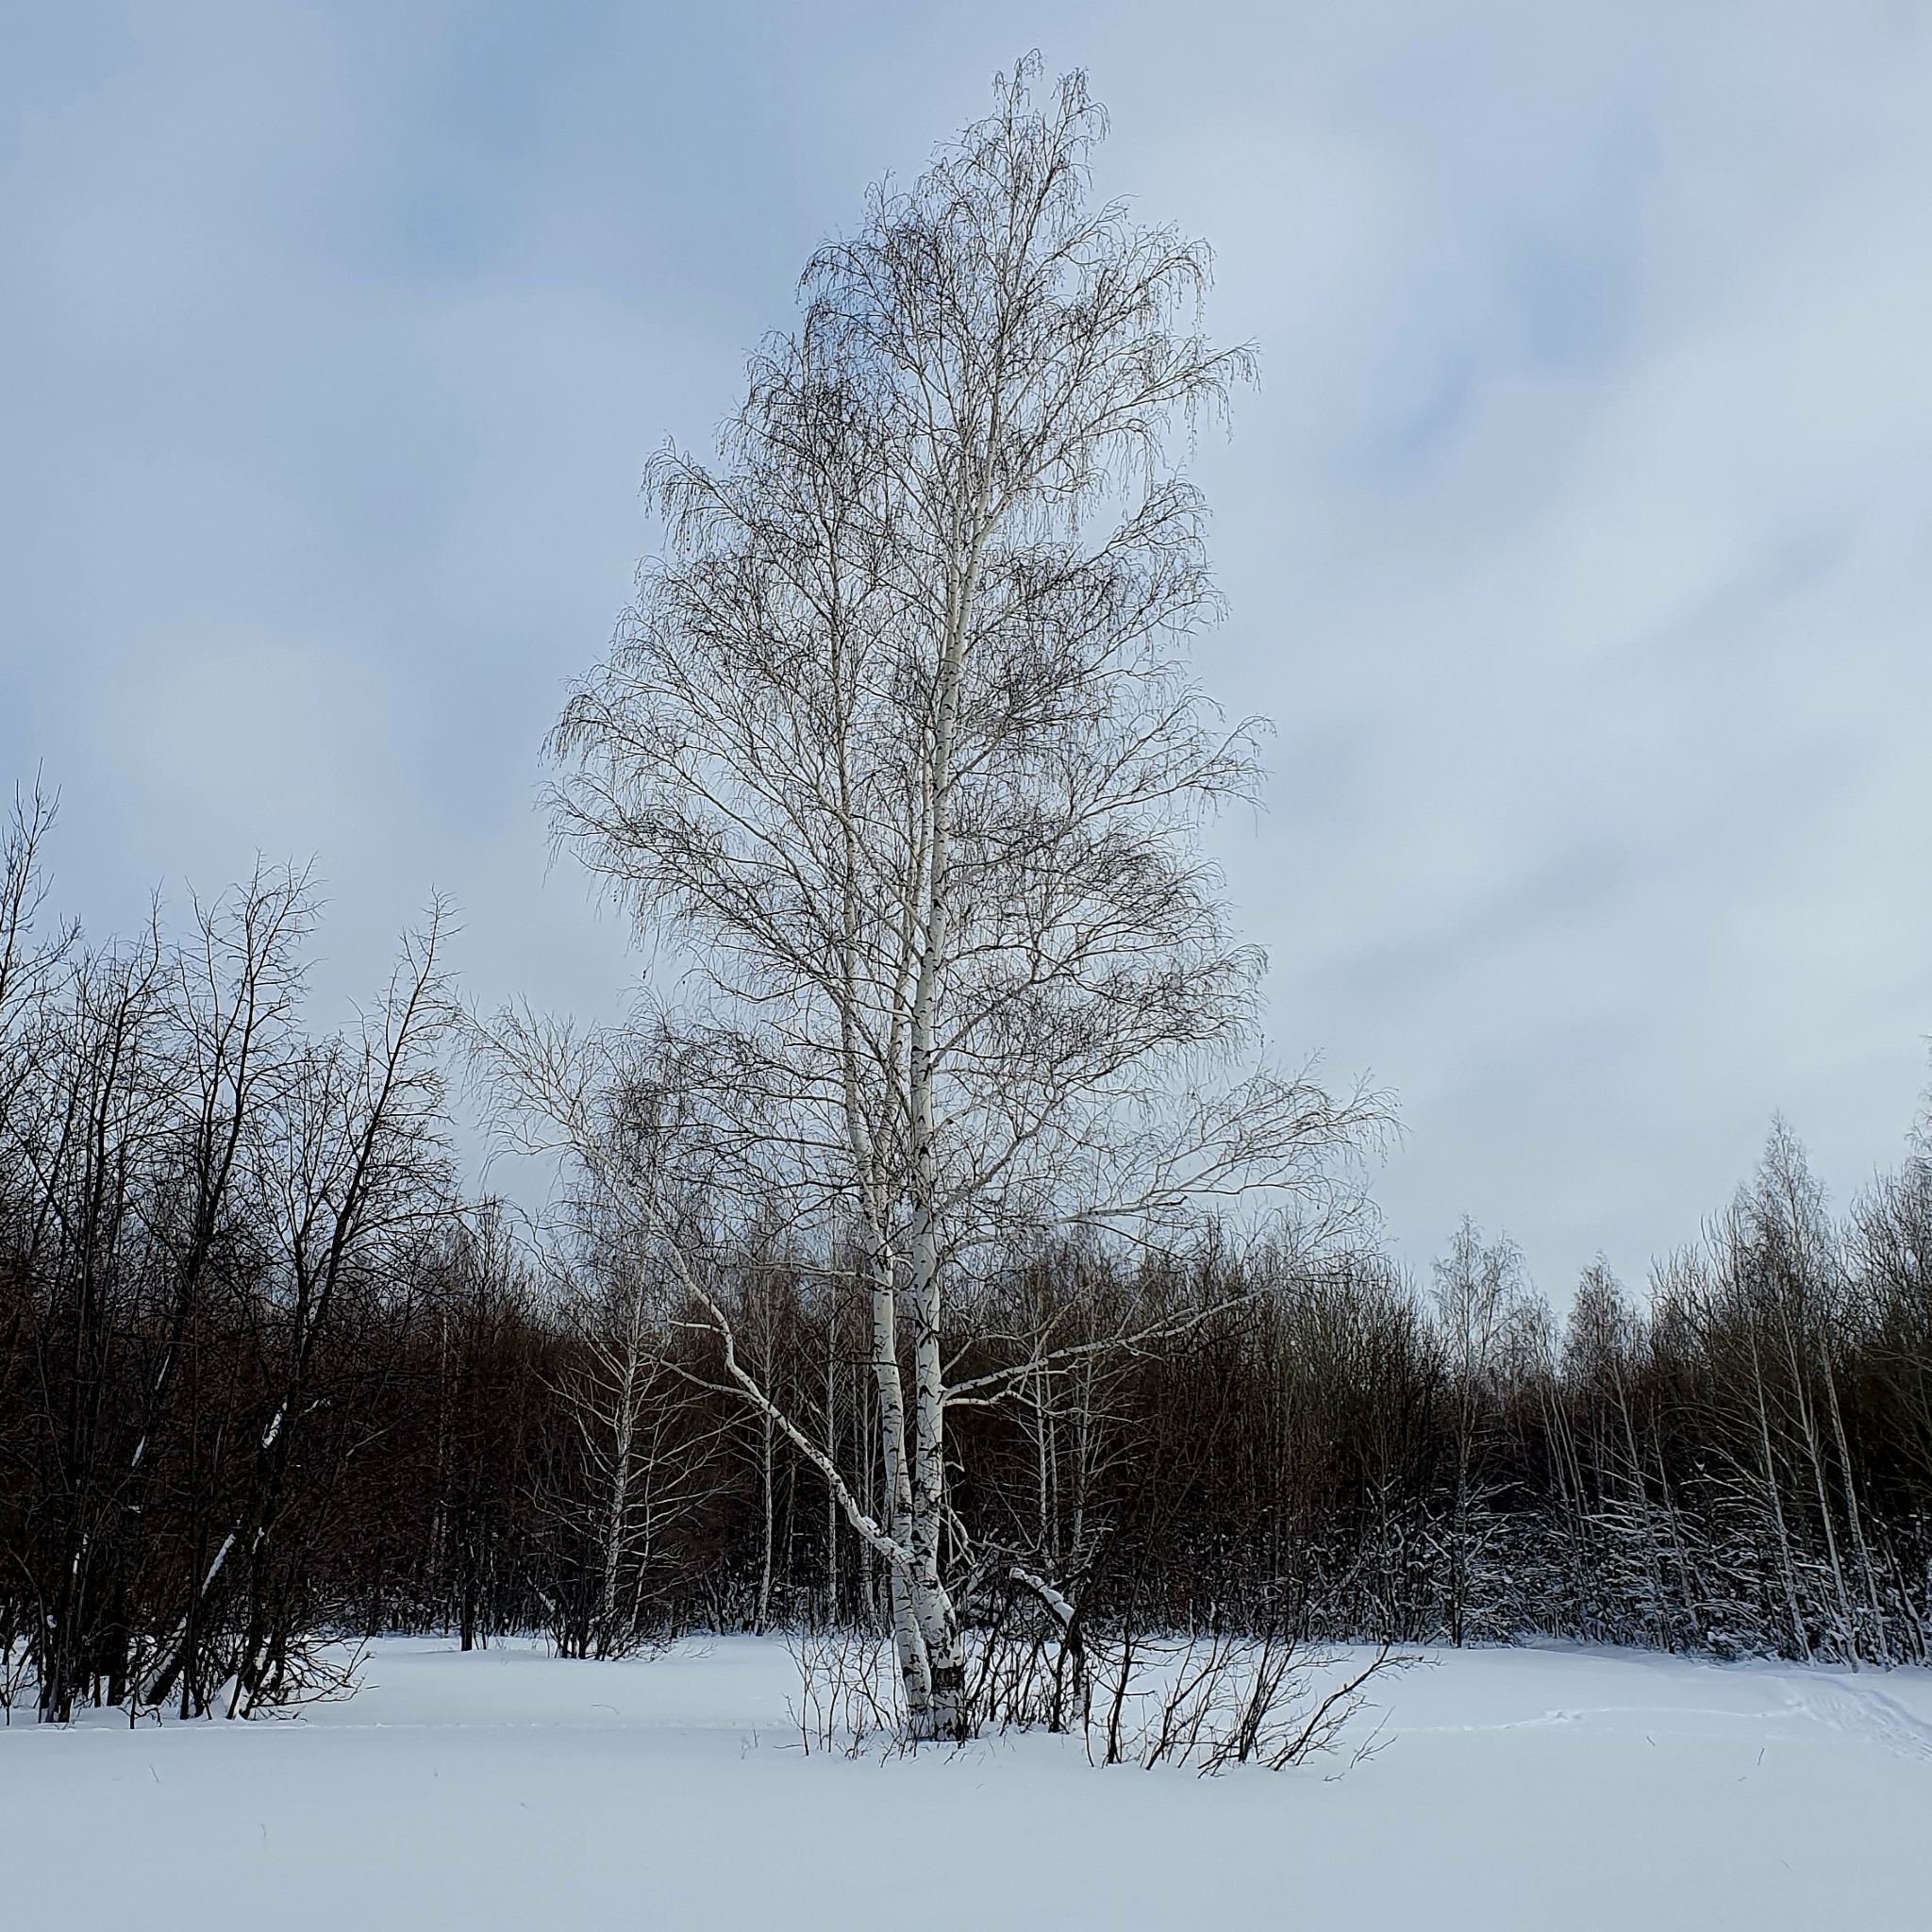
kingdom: Plantae
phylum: Tracheophyta
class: Magnoliopsida
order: Fagales
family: Betulaceae
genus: Betula
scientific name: Betula pendula
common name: Silver birch
